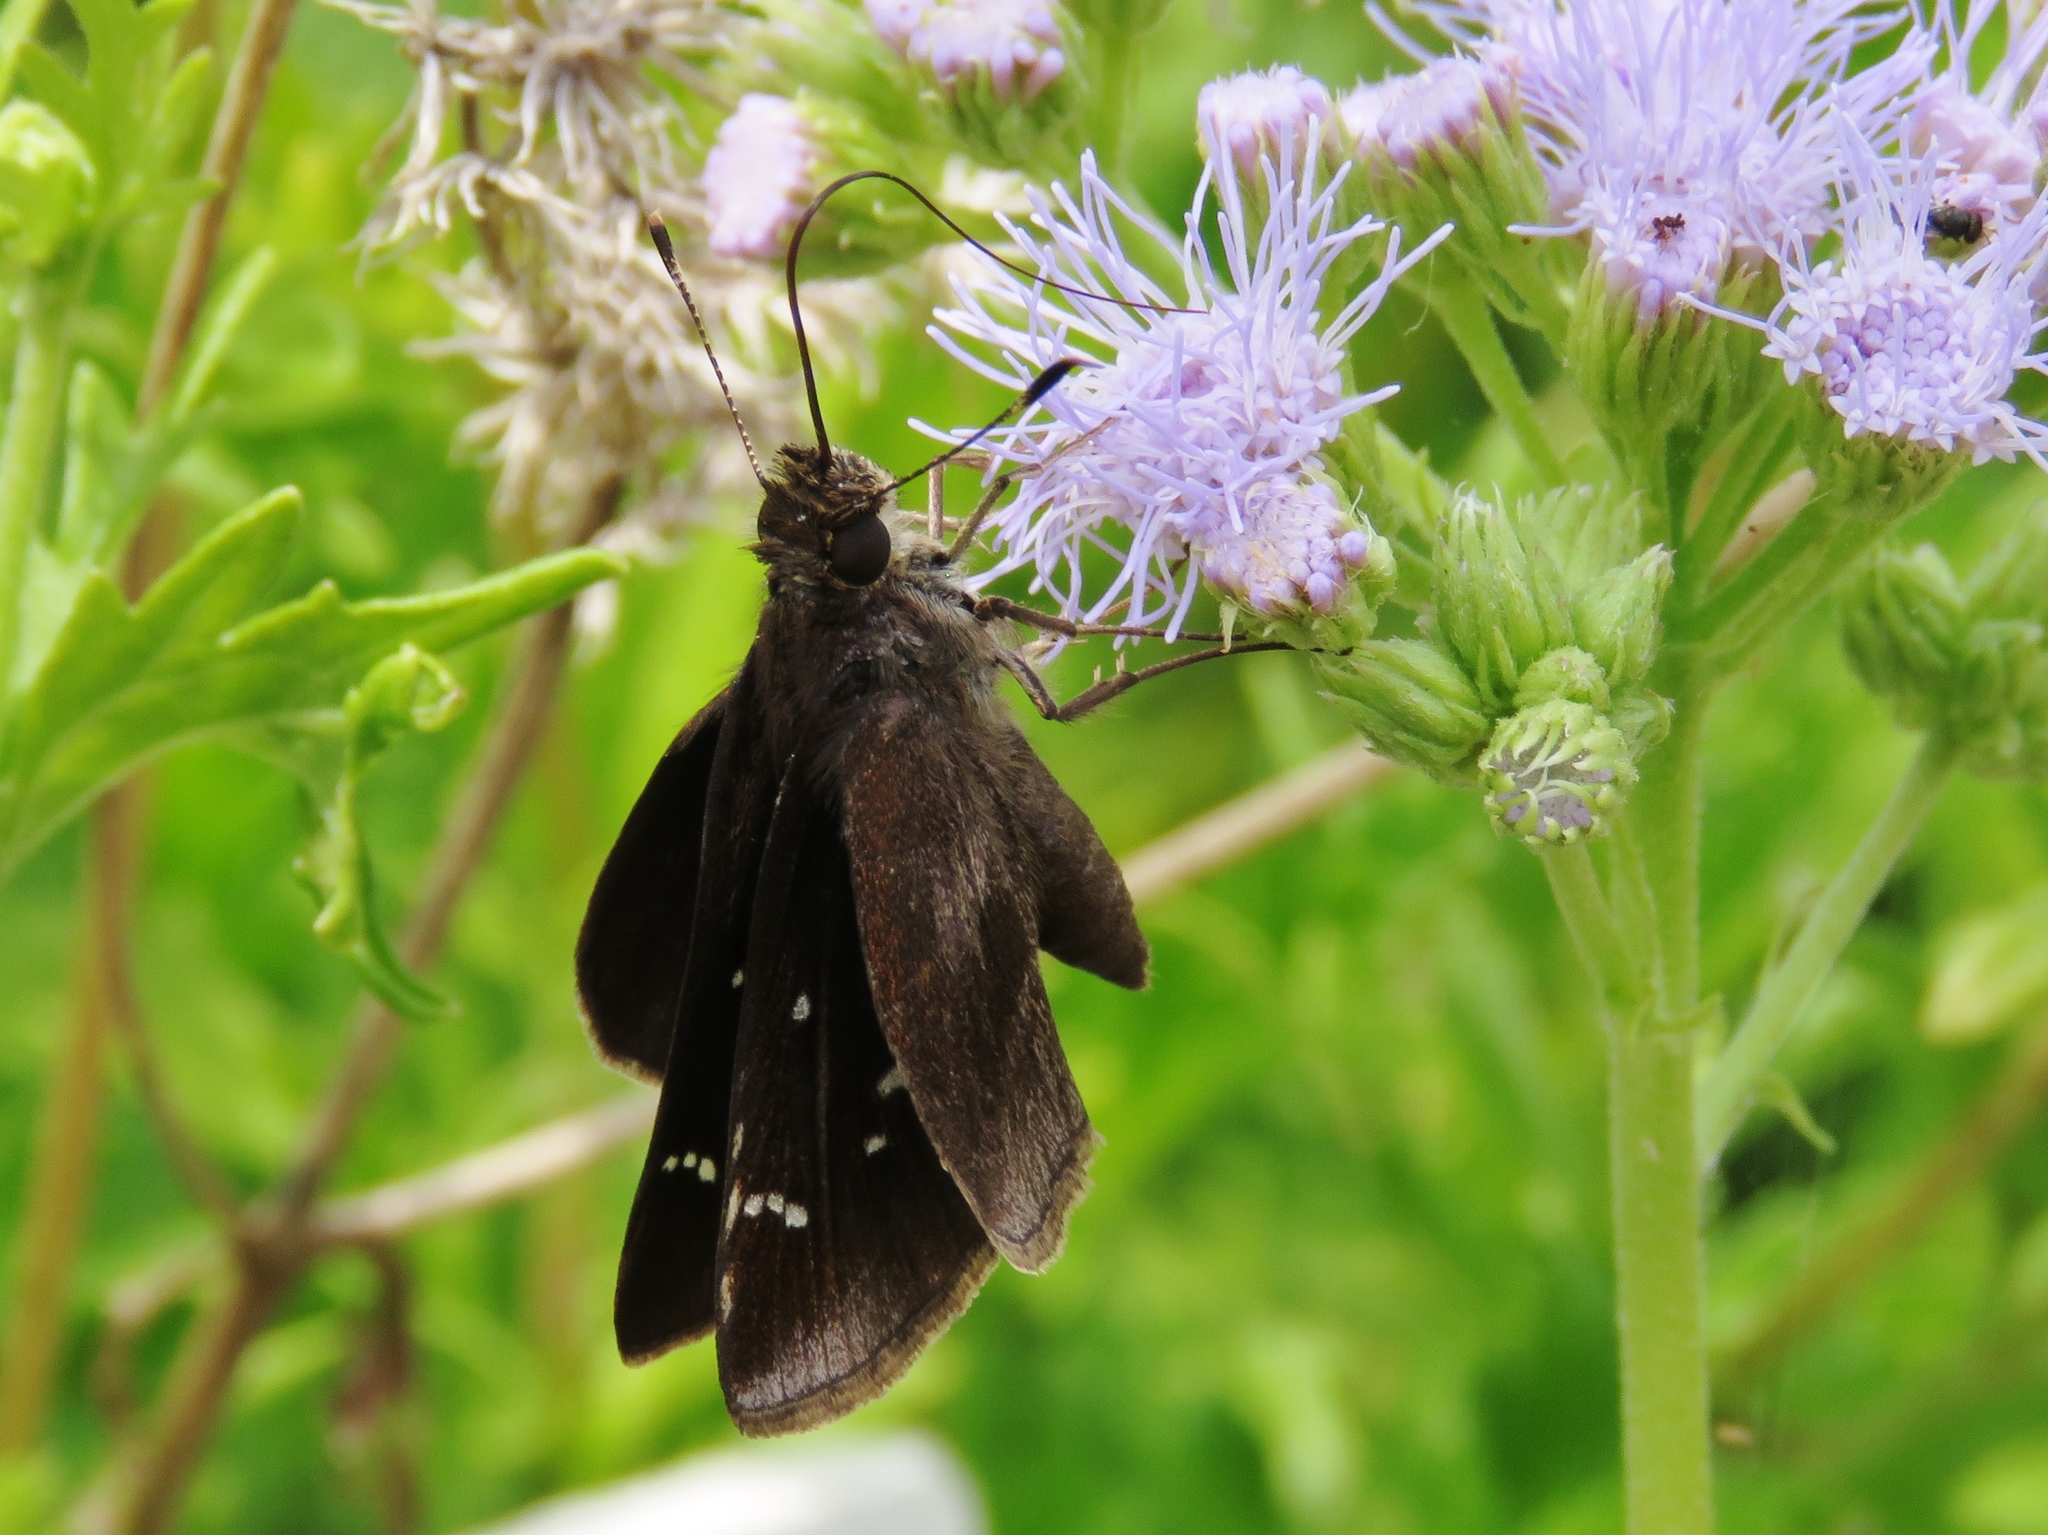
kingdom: Animalia
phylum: Arthropoda
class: Insecta
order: Lepidoptera
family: Hesperiidae
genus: Lerema
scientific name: Lerema accius
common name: Clouded skipper
